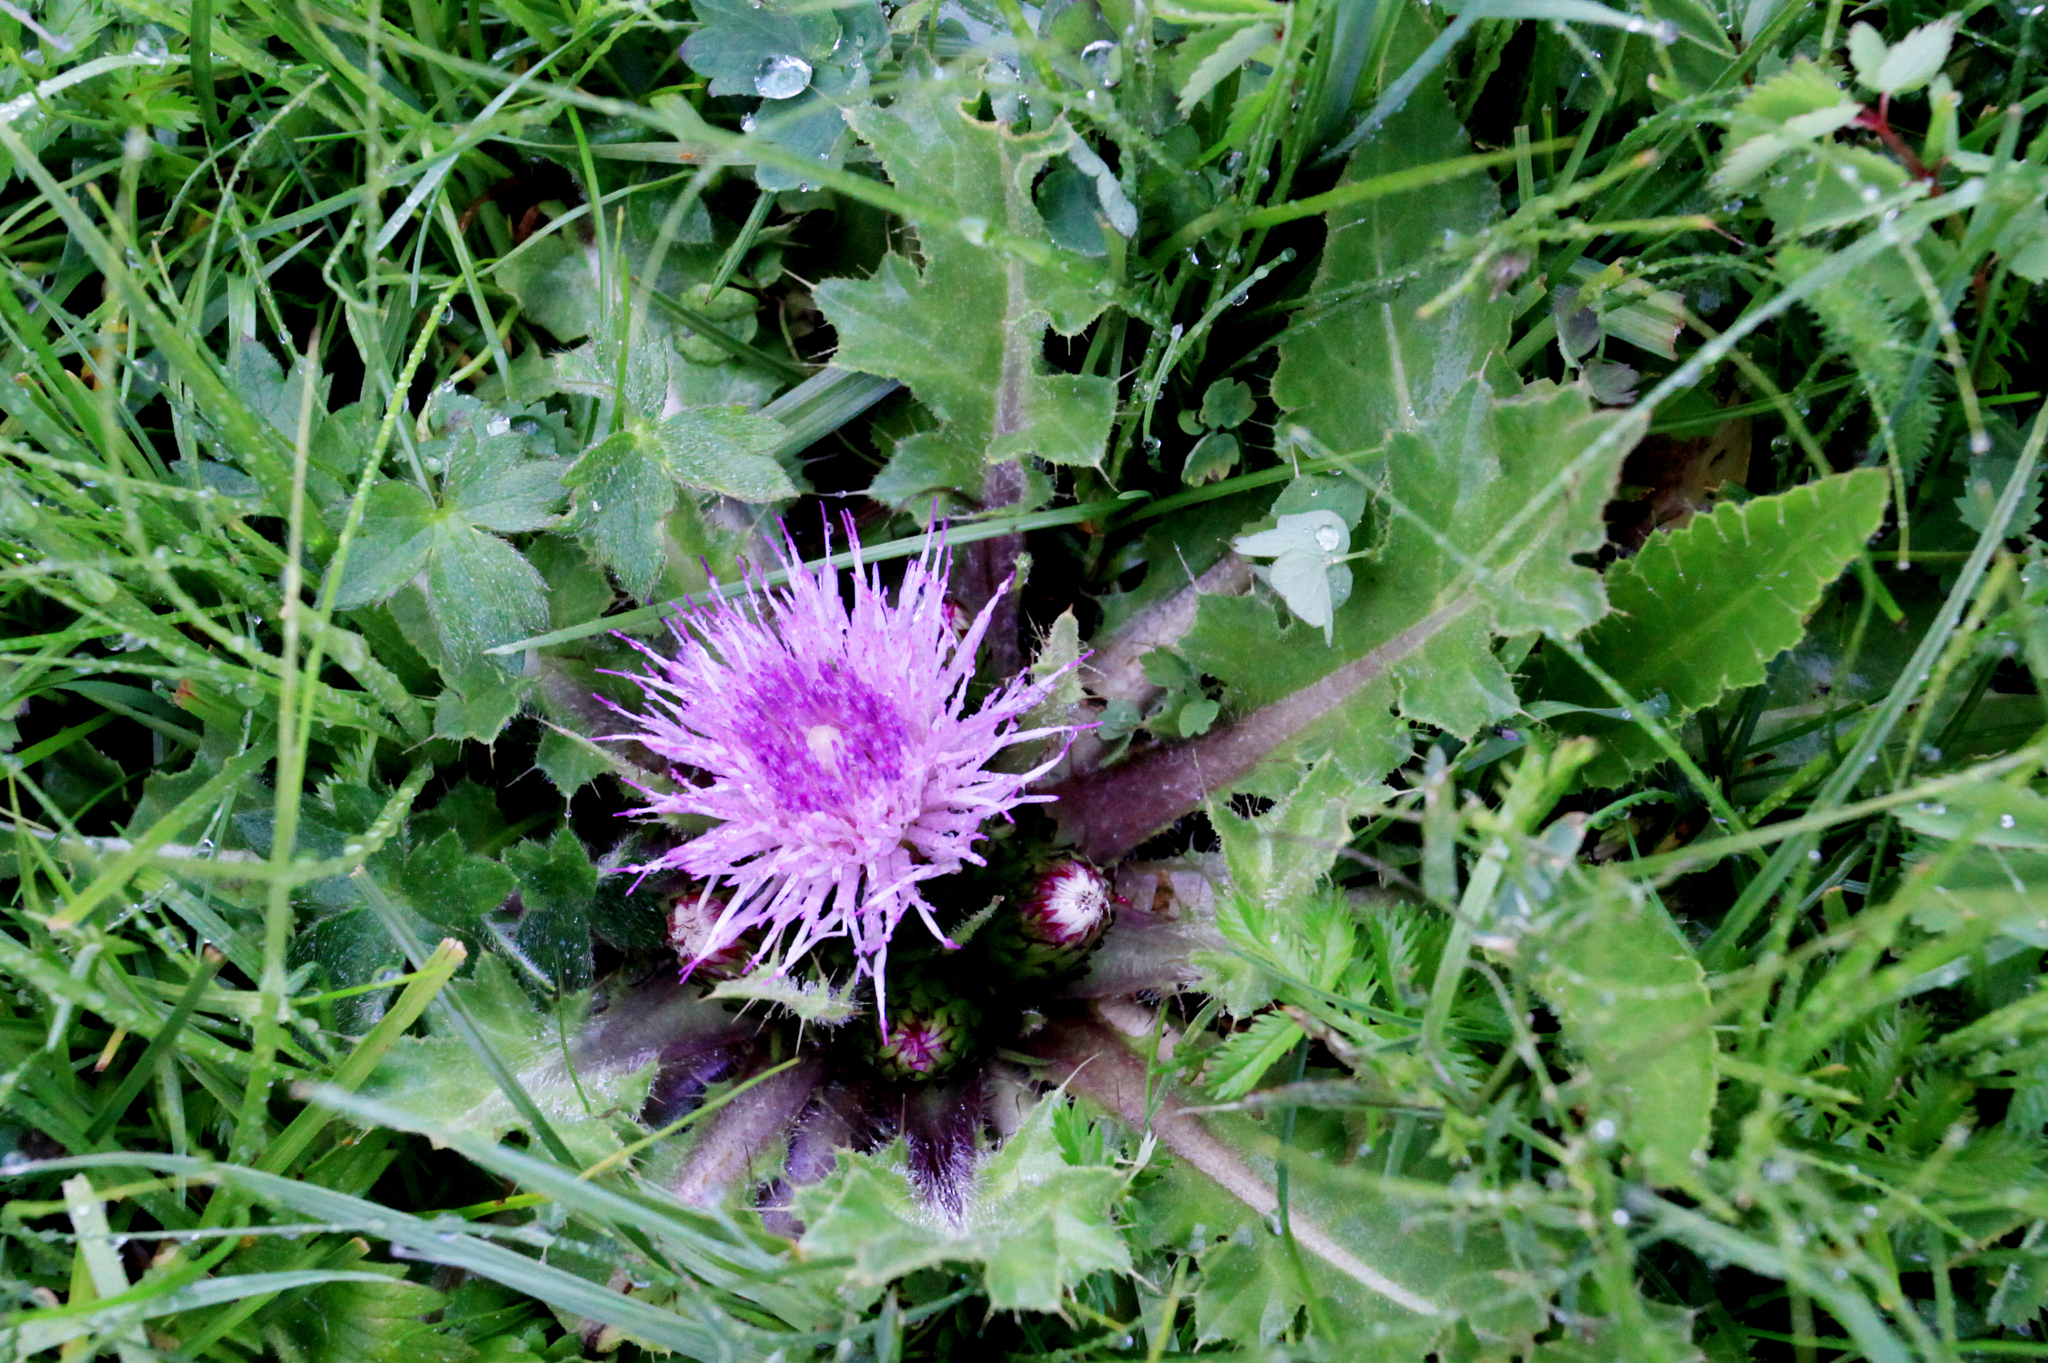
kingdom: Plantae
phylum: Tracheophyta
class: Magnoliopsida
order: Asterales
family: Asteraceae
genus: Cirsium
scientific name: Cirsium esculentum
